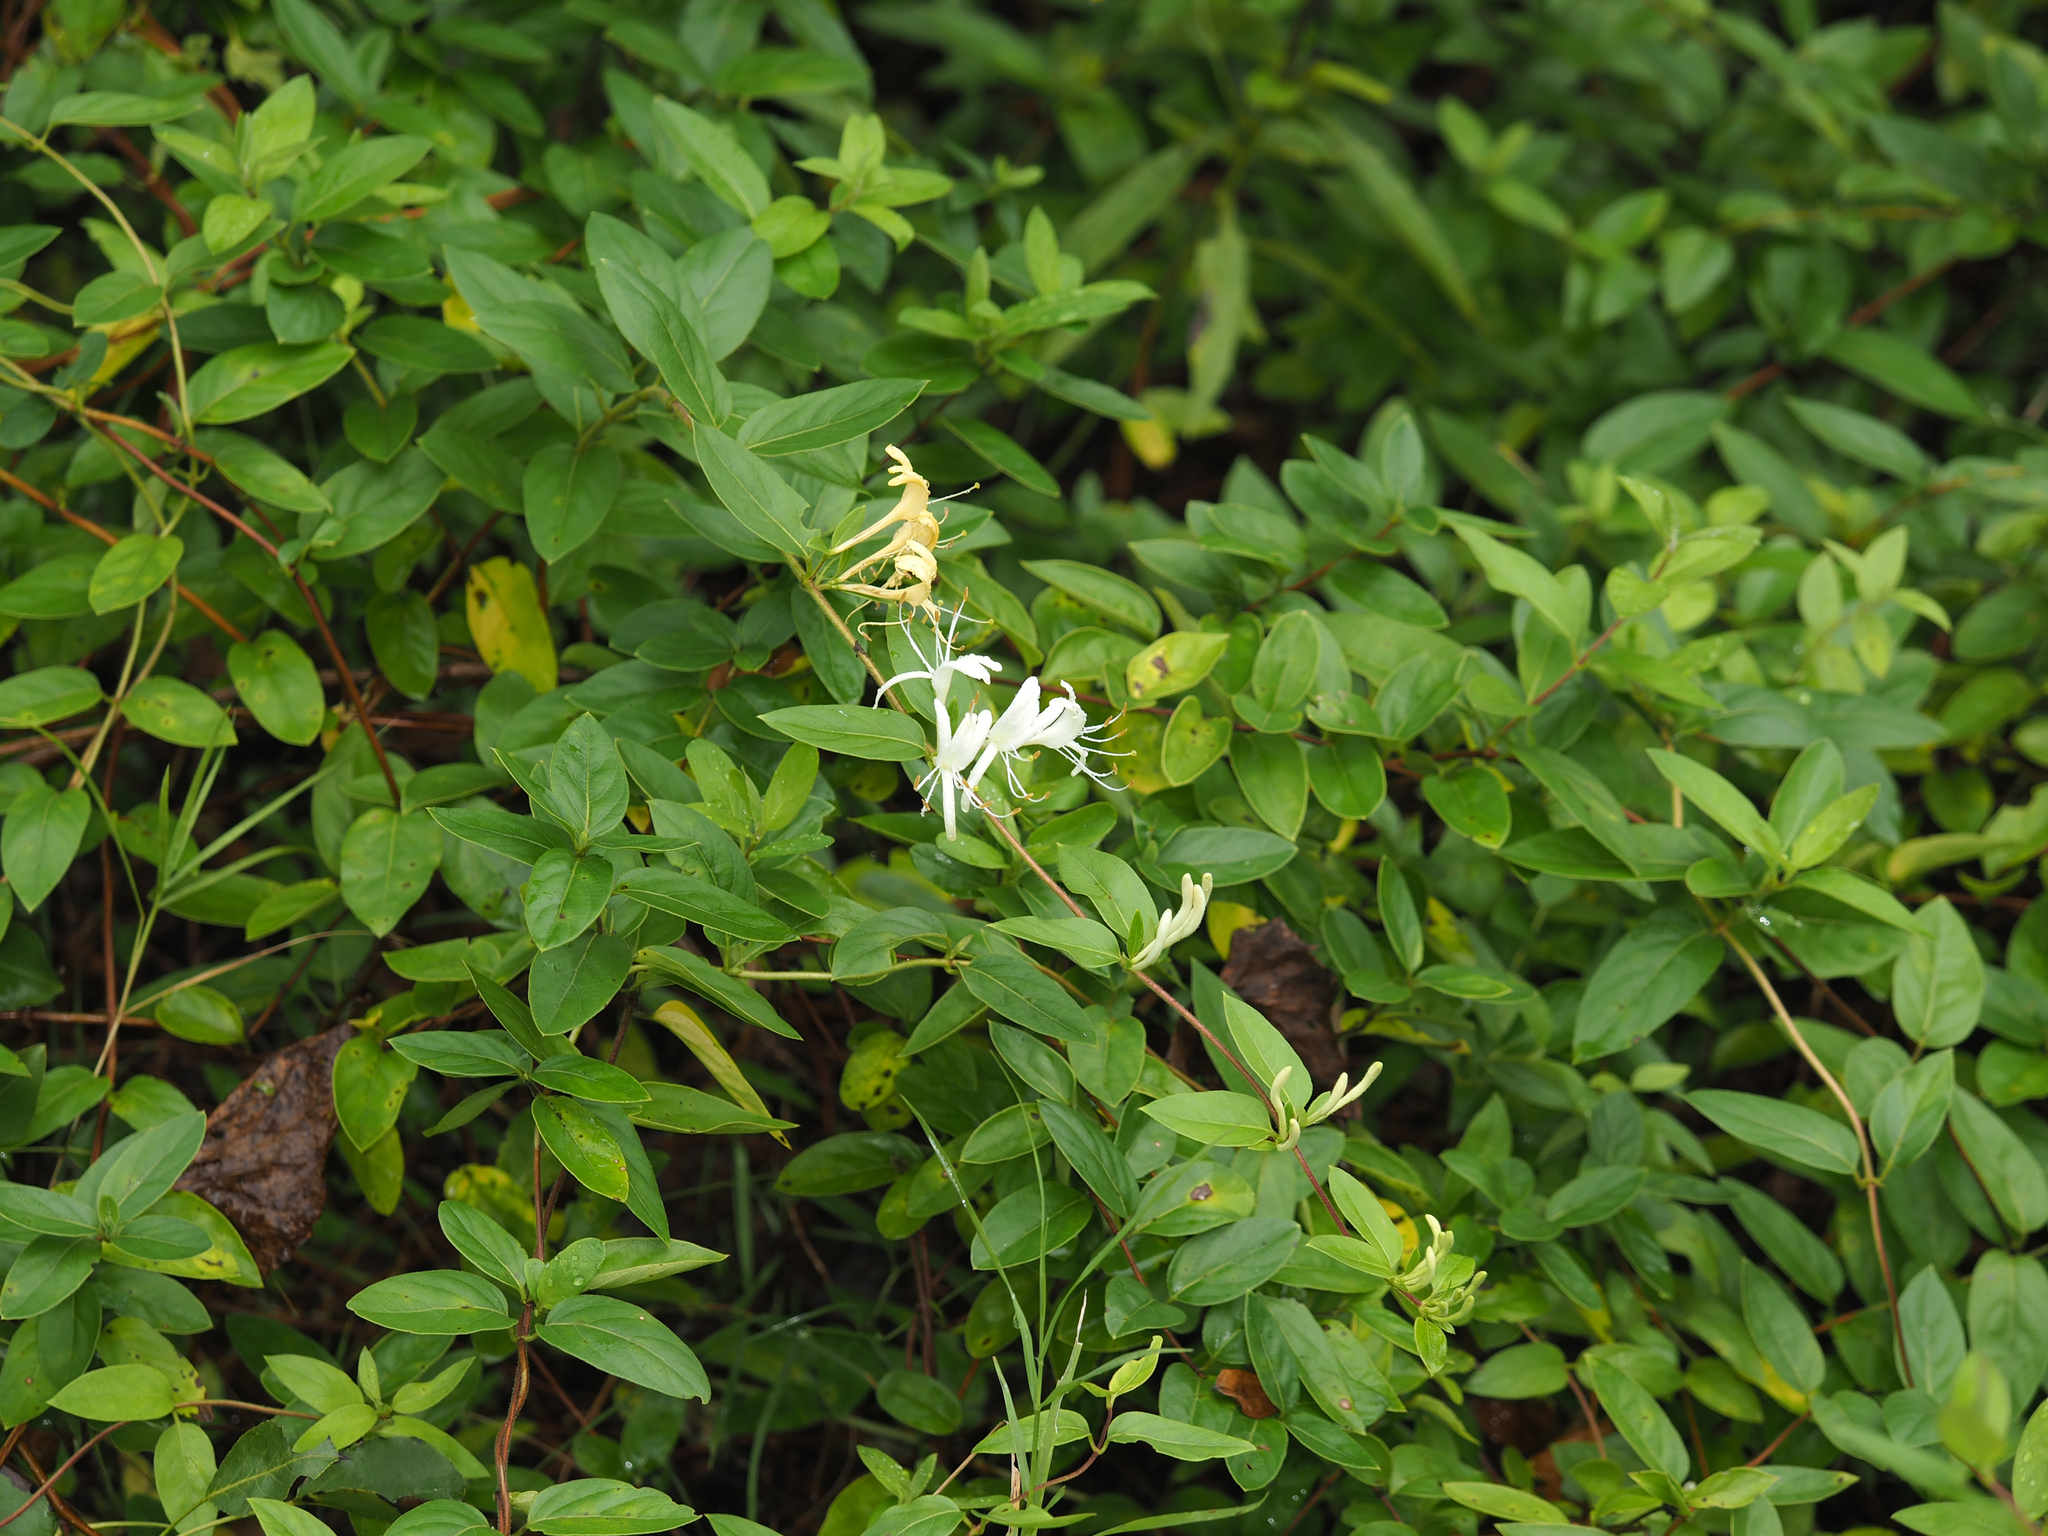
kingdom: Plantae
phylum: Tracheophyta
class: Magnoliopsida
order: Dipsacales
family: Caprifoliaceae
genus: Lonicera
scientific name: Lonicera japonica
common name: Japanese honeysuckle
